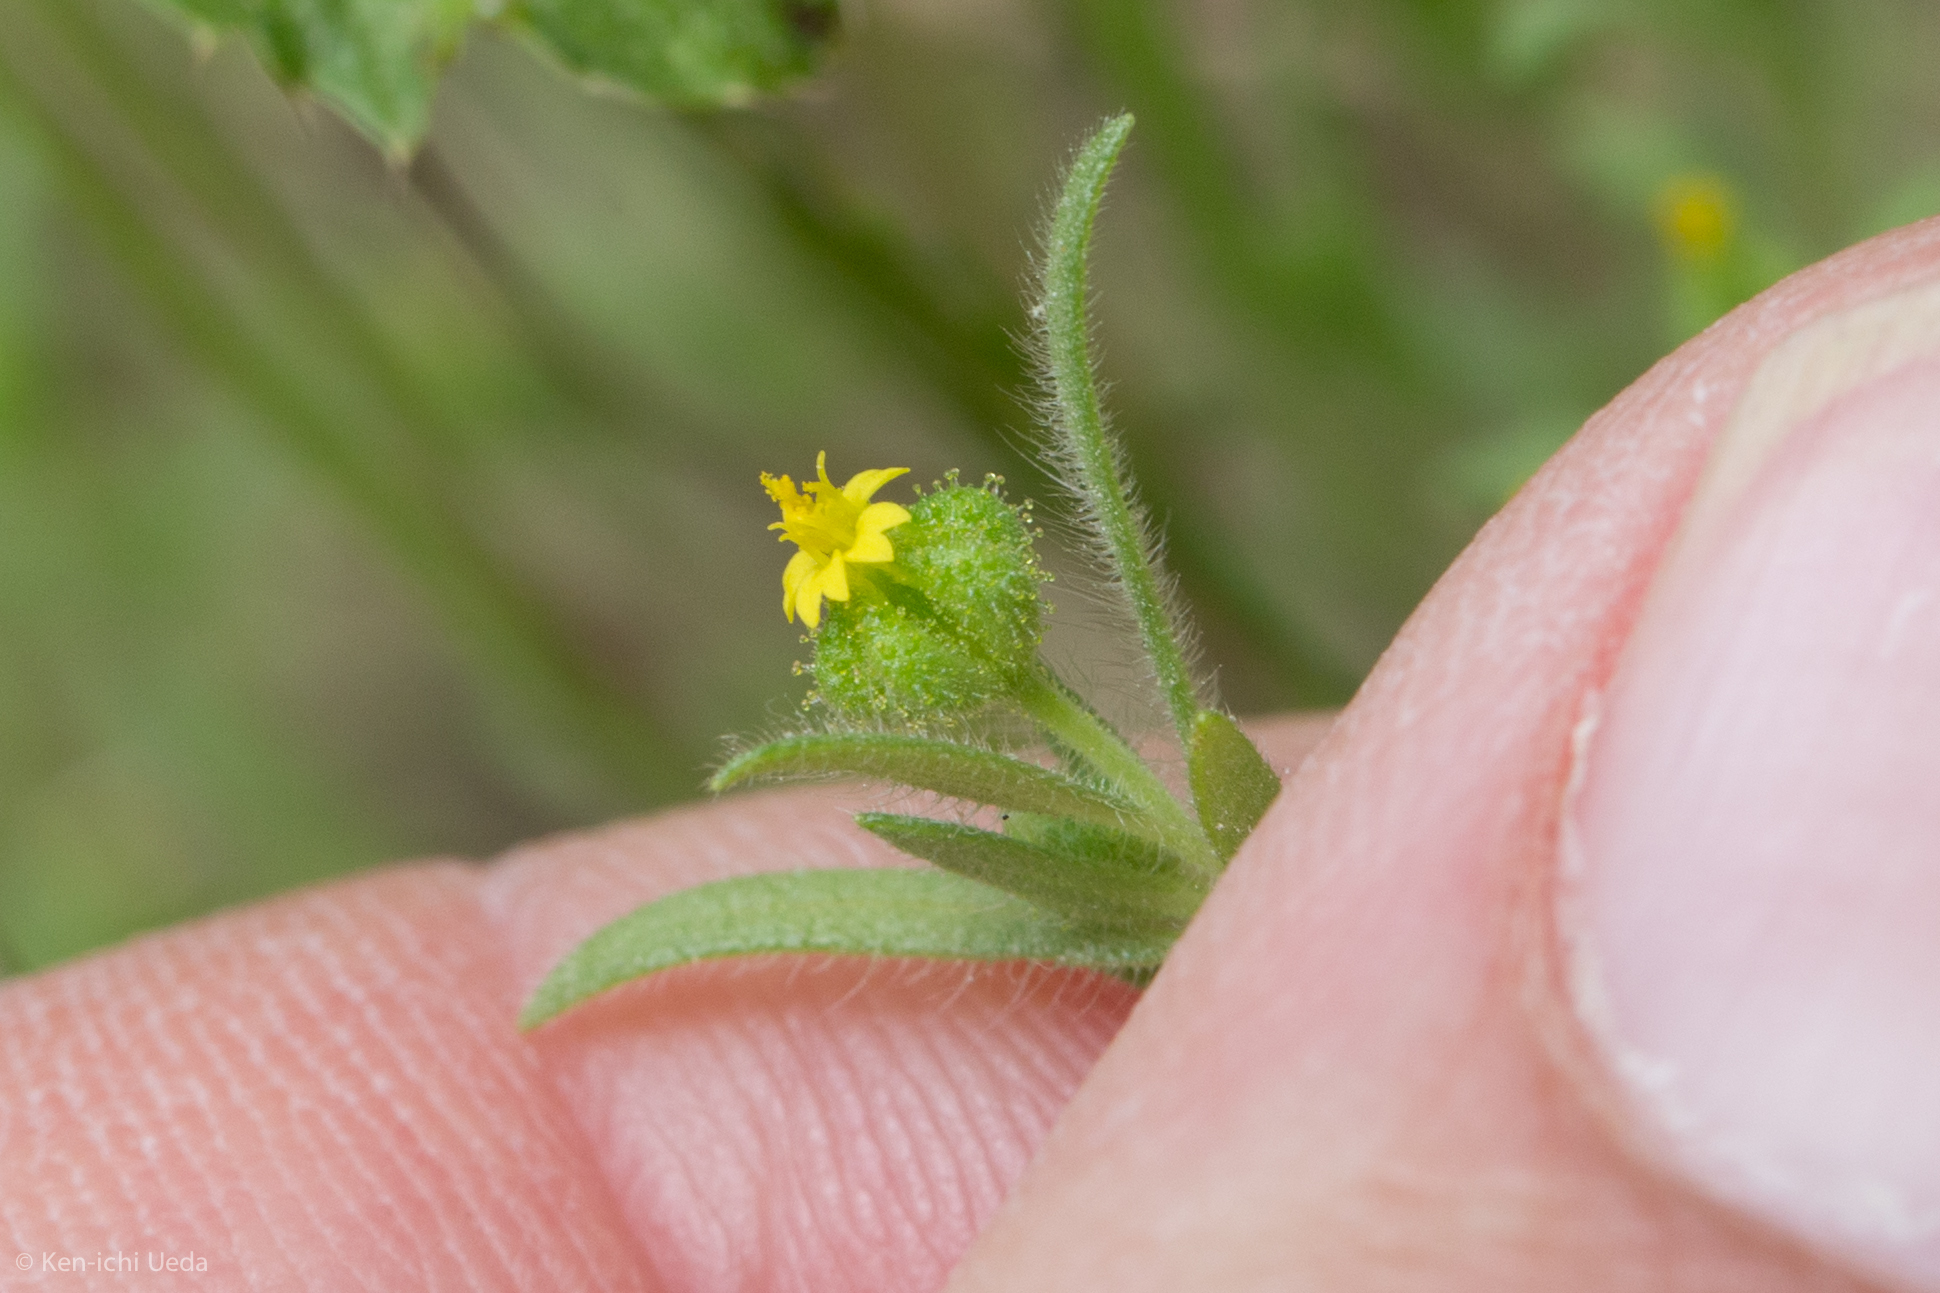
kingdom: Plantae
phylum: Tracheophyta
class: Magnoliopsida
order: Asterales
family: Asteraceae
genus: Madia
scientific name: Madia exigua
